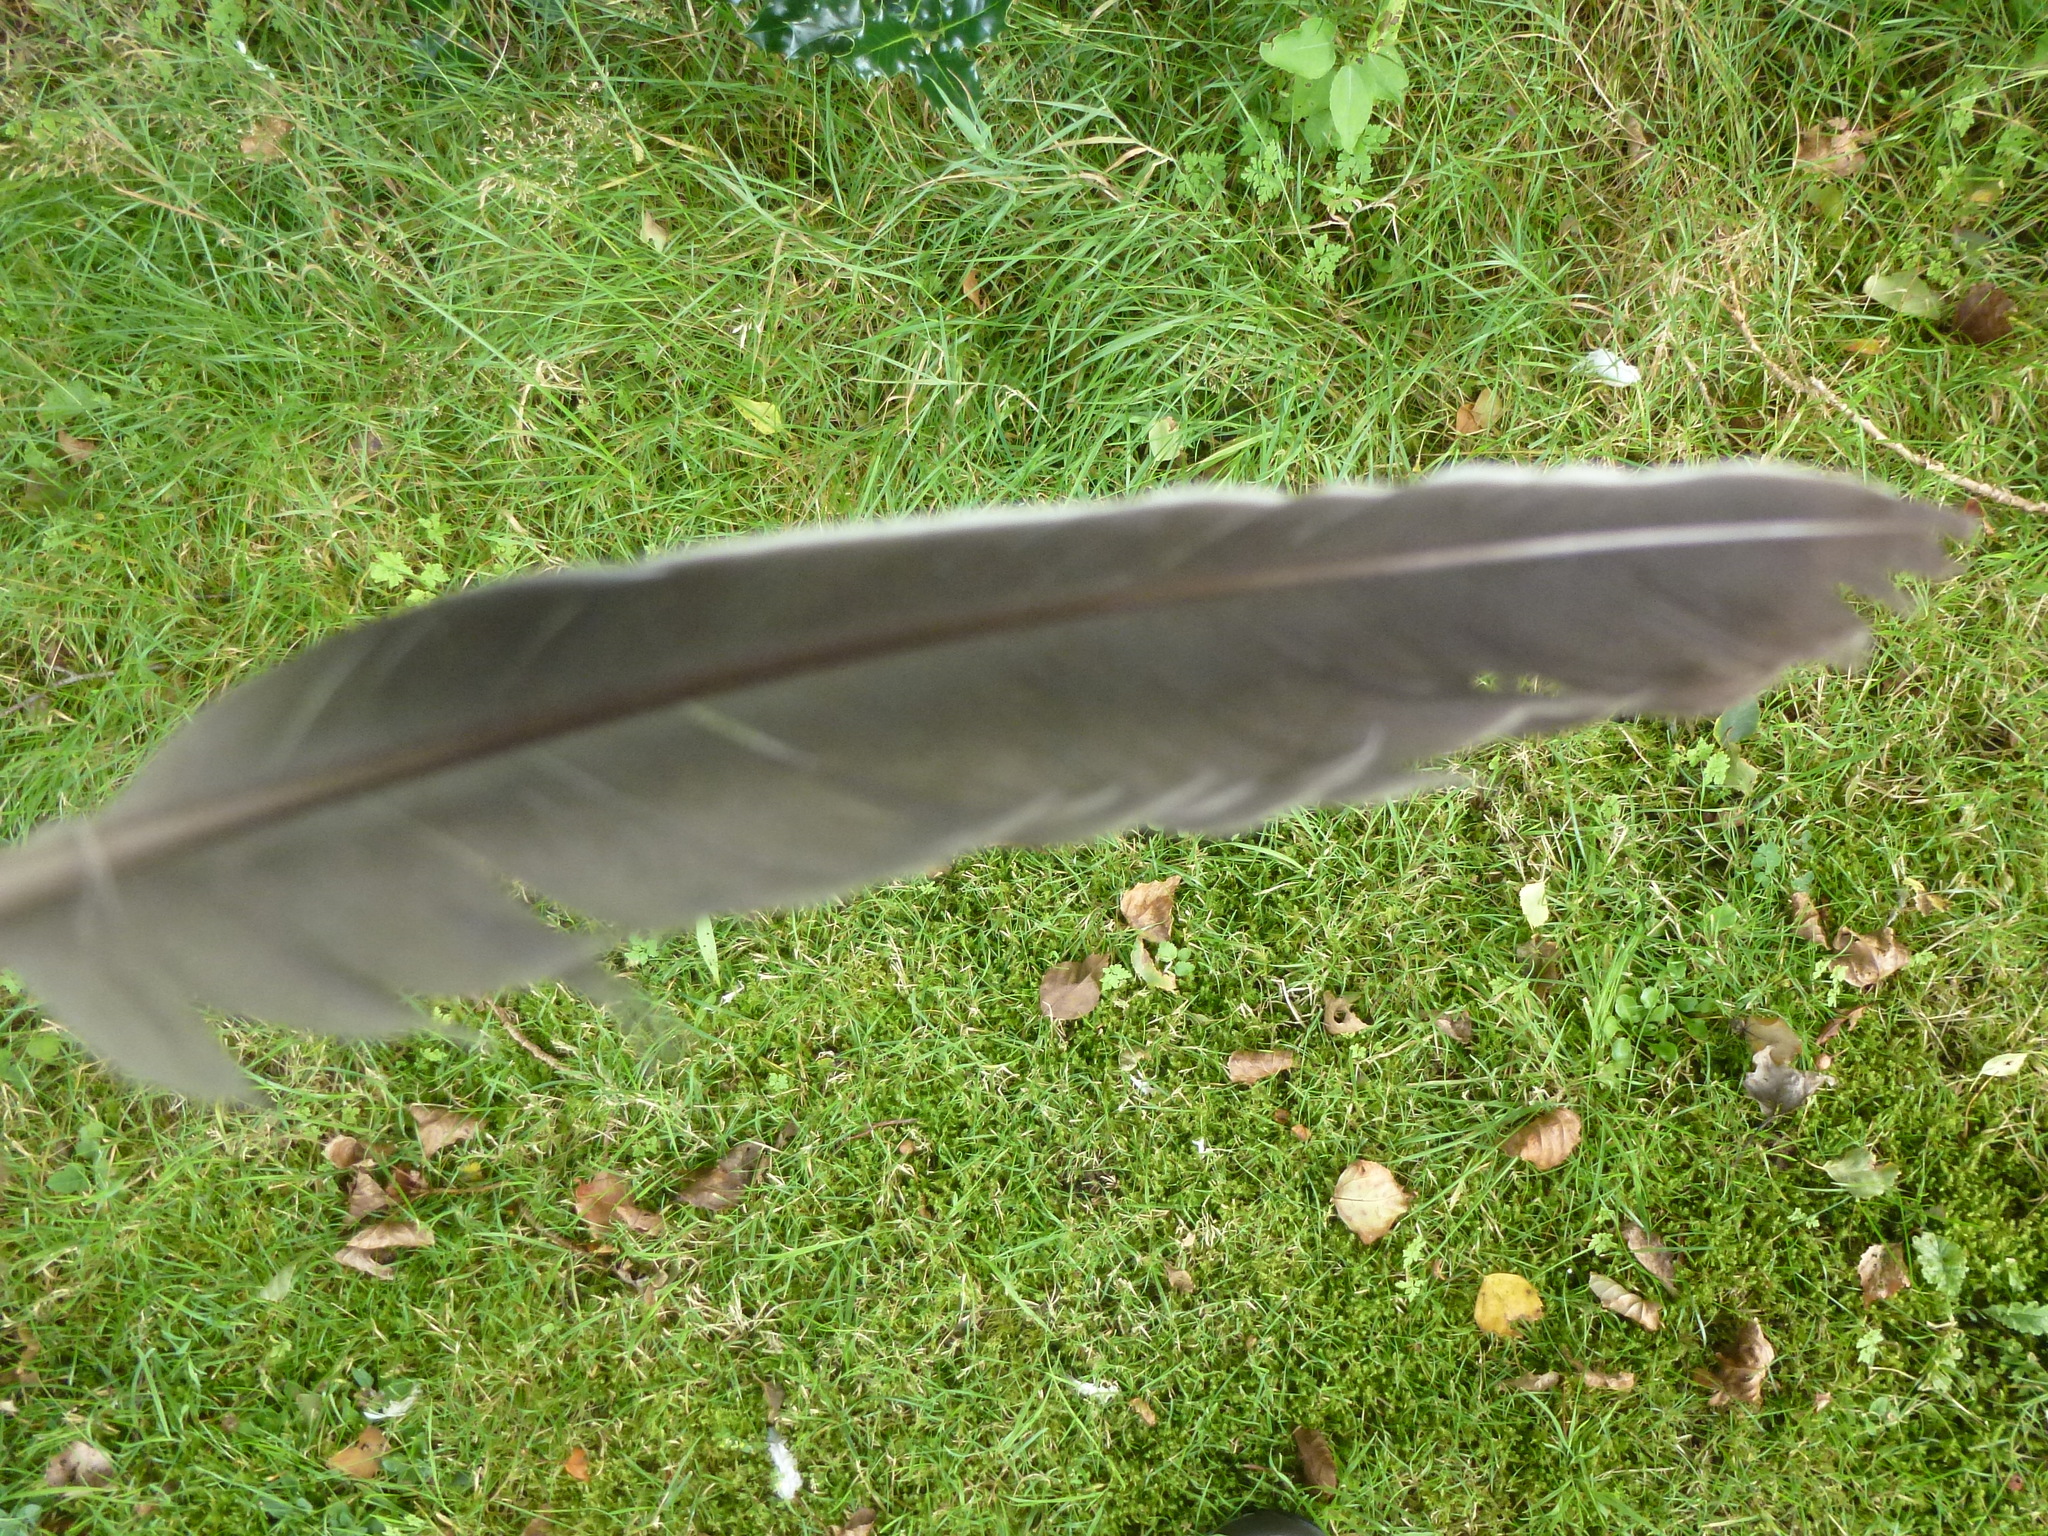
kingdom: Animalia
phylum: Chordata
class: Aves
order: Columbiformes
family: Columbidae
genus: Columba
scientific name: Columba palumbus
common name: Common wood pigeon
